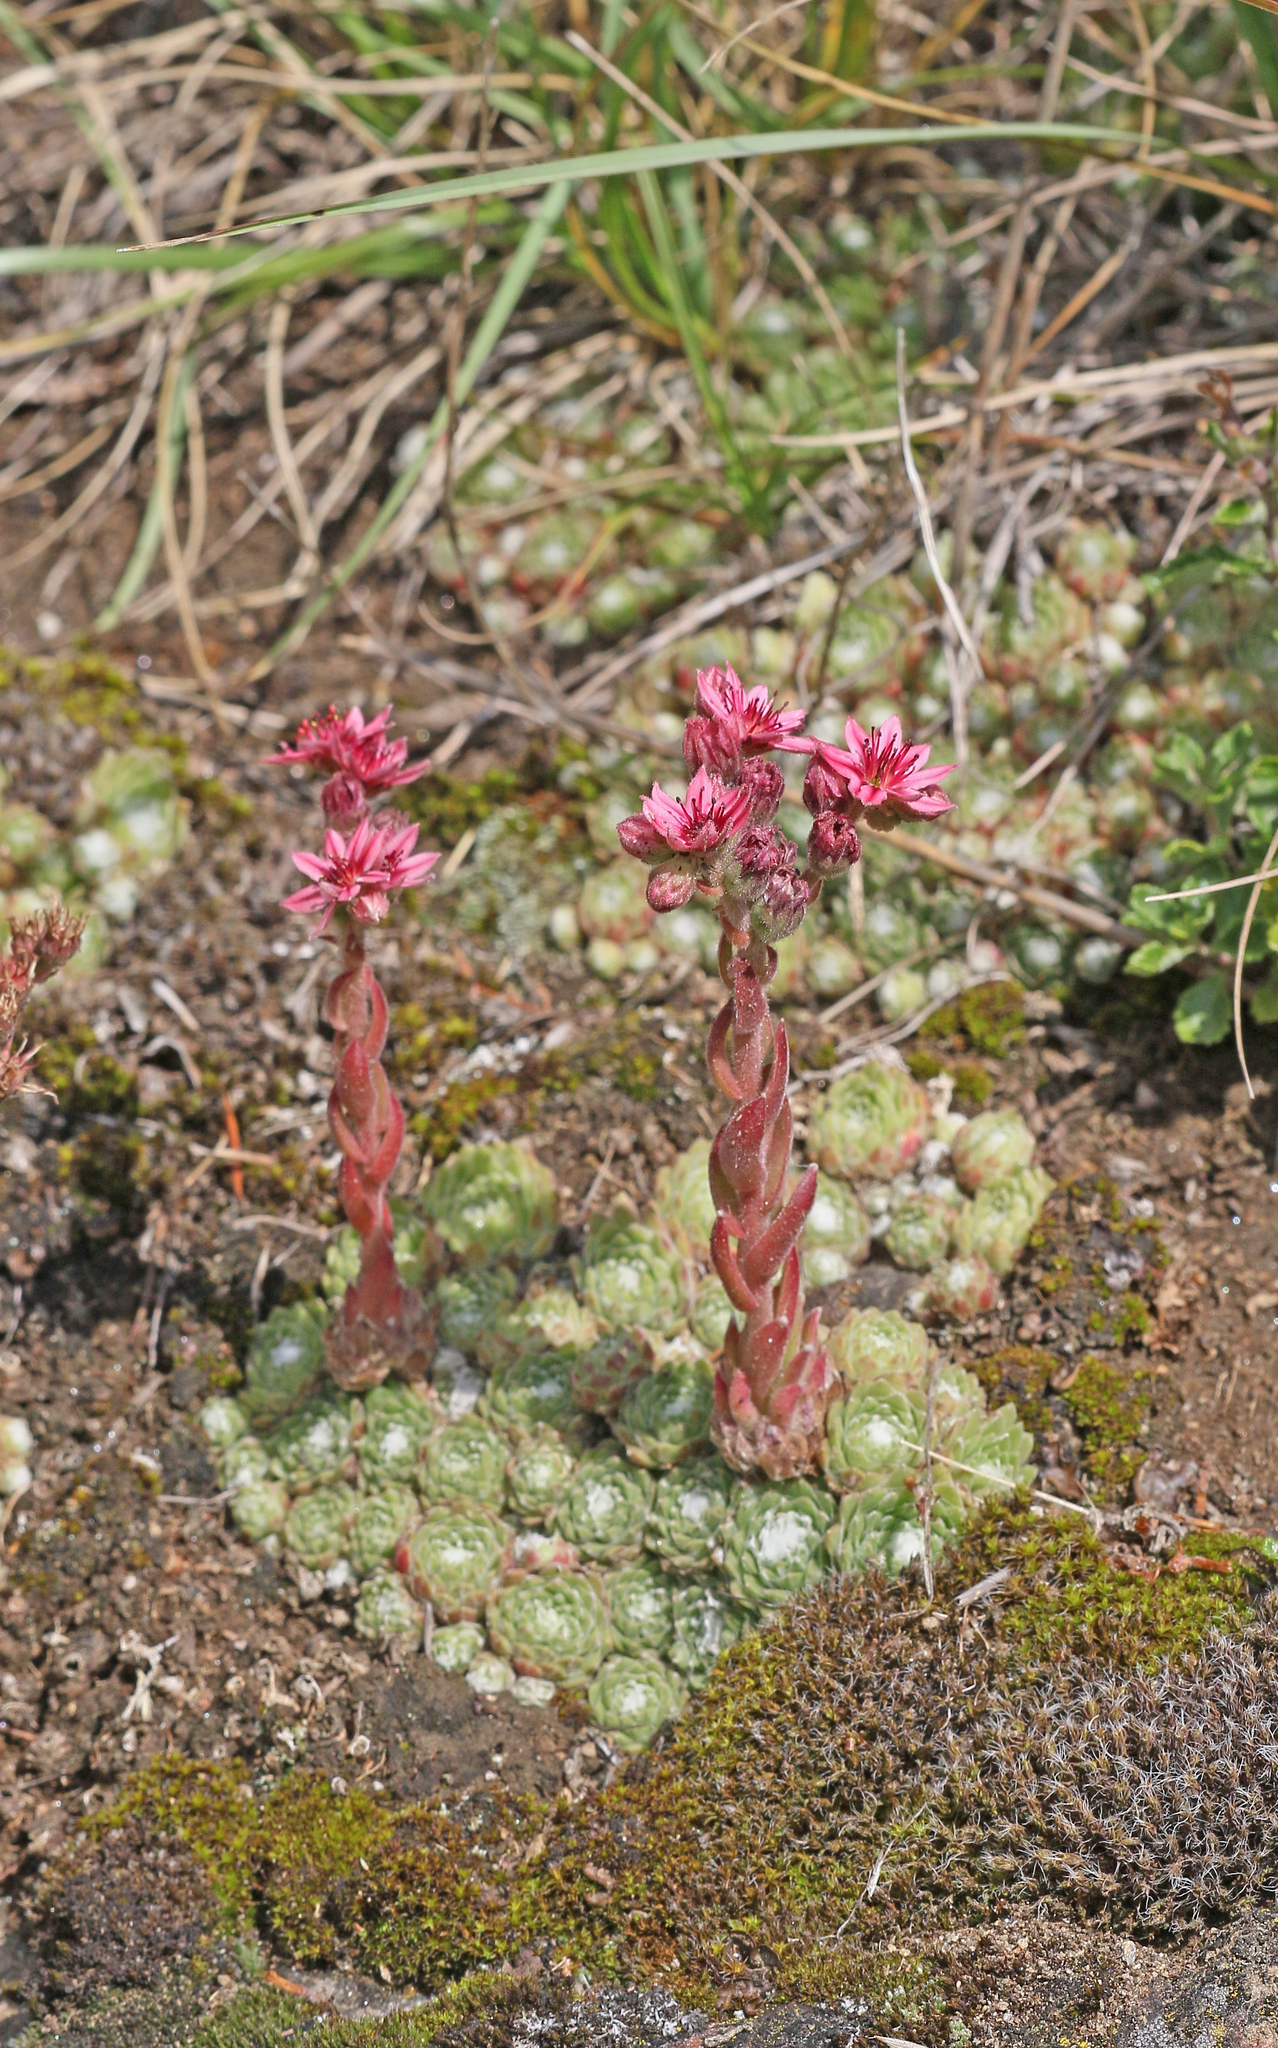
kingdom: Plantae
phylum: Tracheophyta
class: Magnoliopsida
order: Saxifragales
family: Crassulaceae
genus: Sempervivum
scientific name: Sempervivum arachnoideum
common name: Cobweb house-leek
